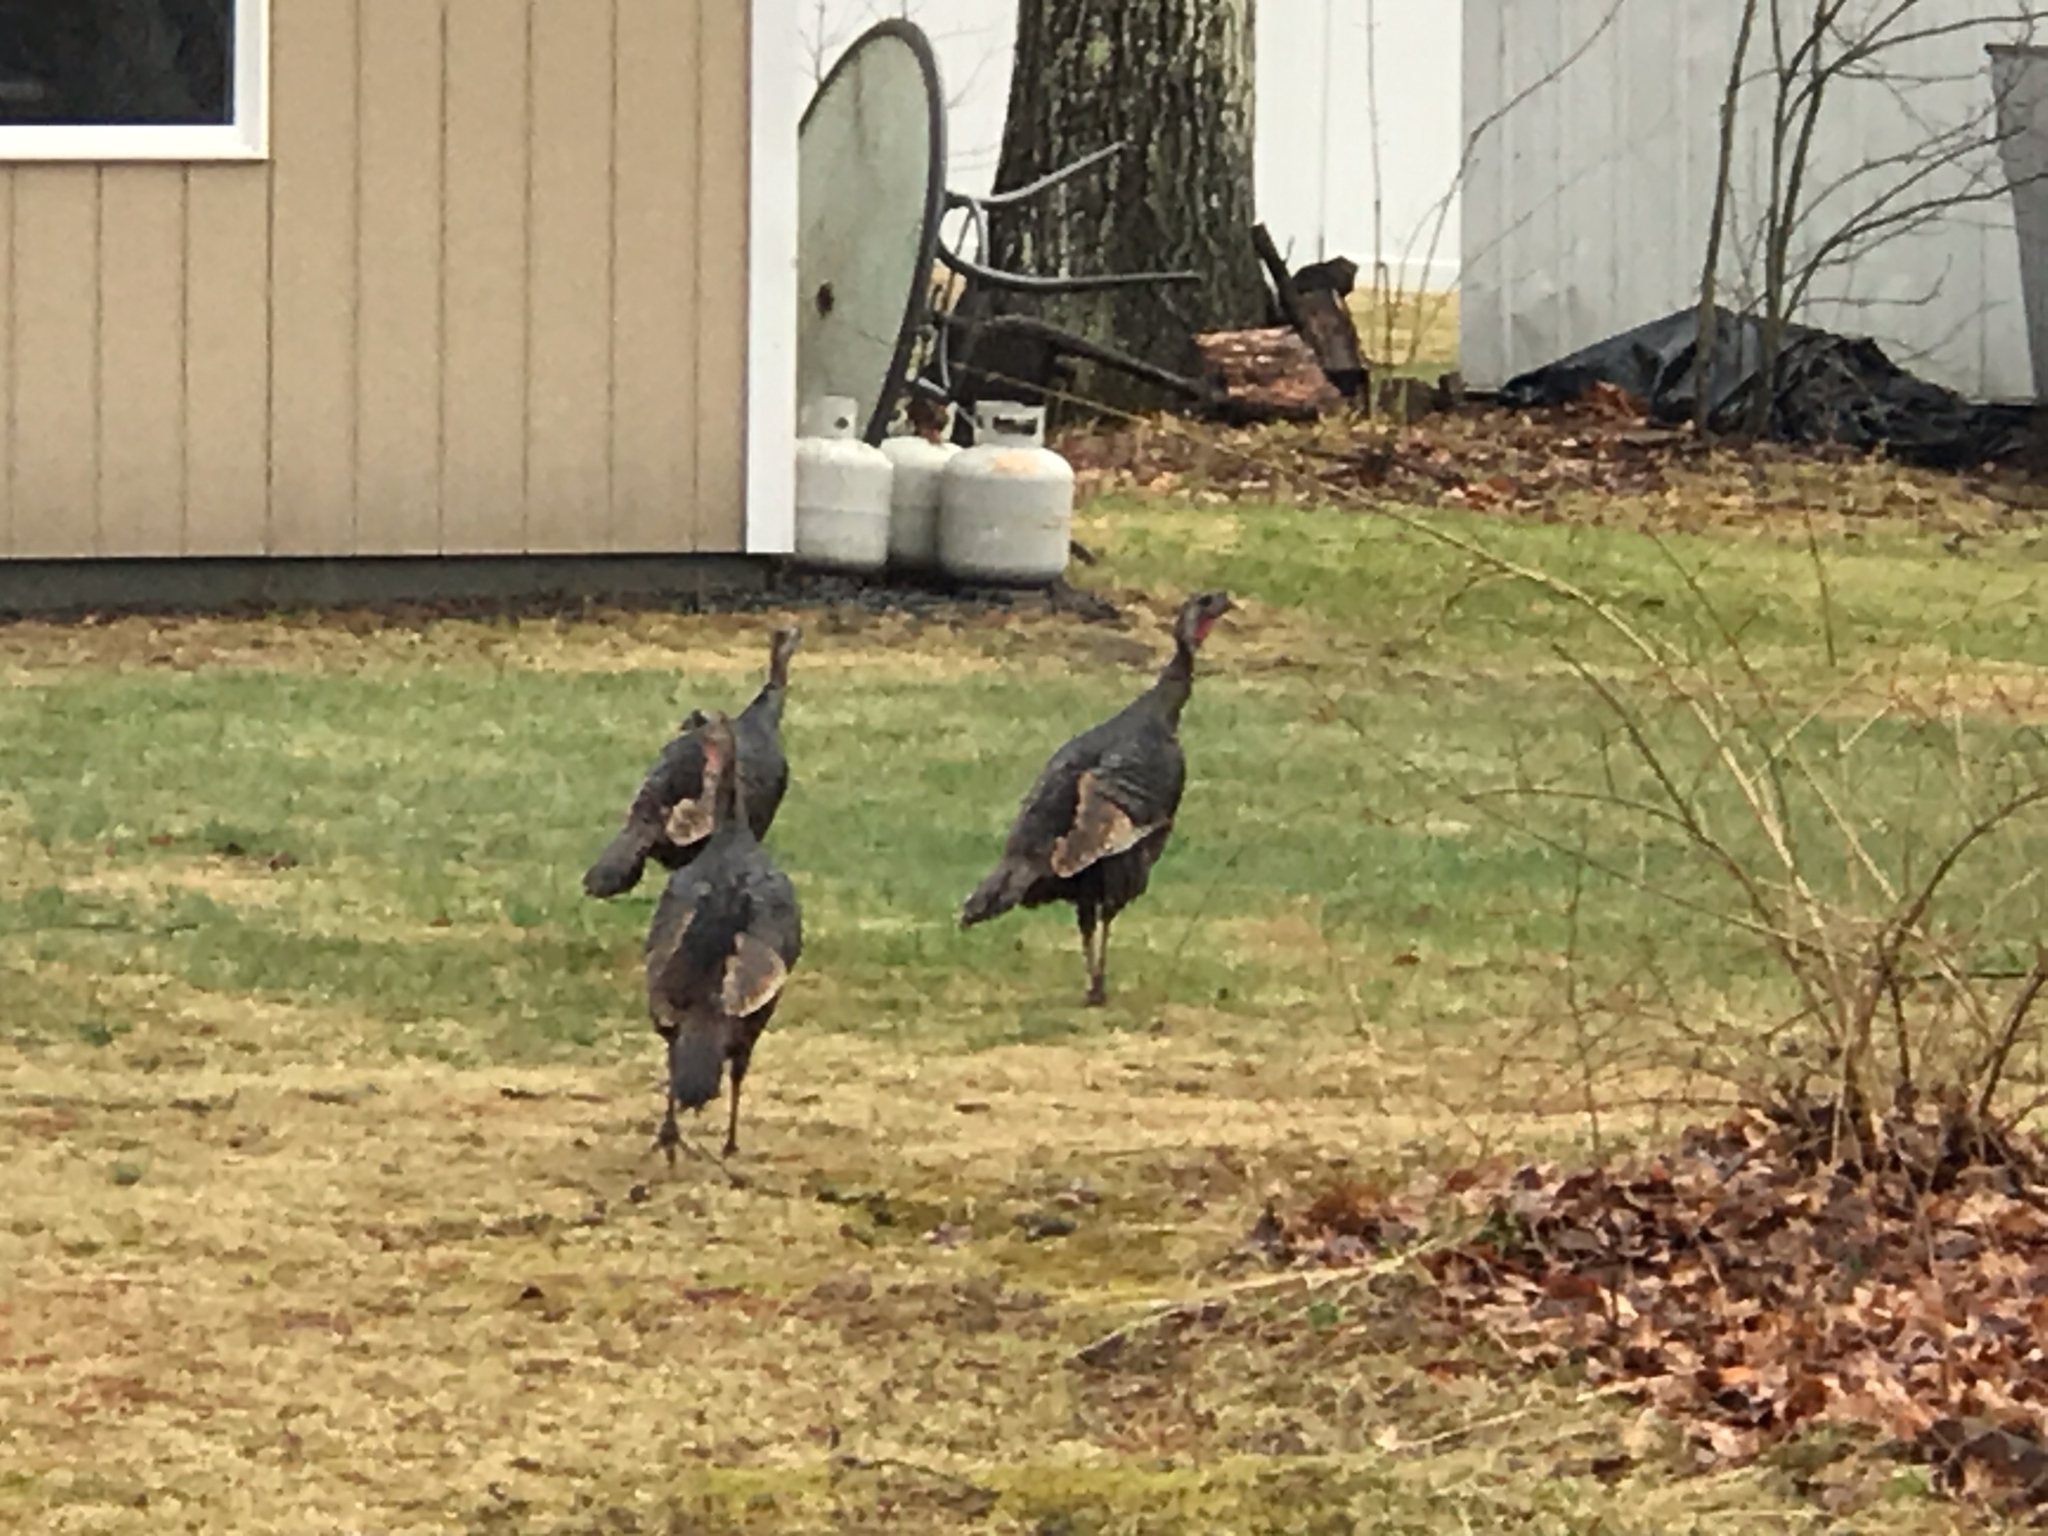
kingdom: Animalia
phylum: Chordata
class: Aves
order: Galliformes
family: Phasianidae
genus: Meleagris
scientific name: Meleagris gallopavo
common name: Wild turkey
